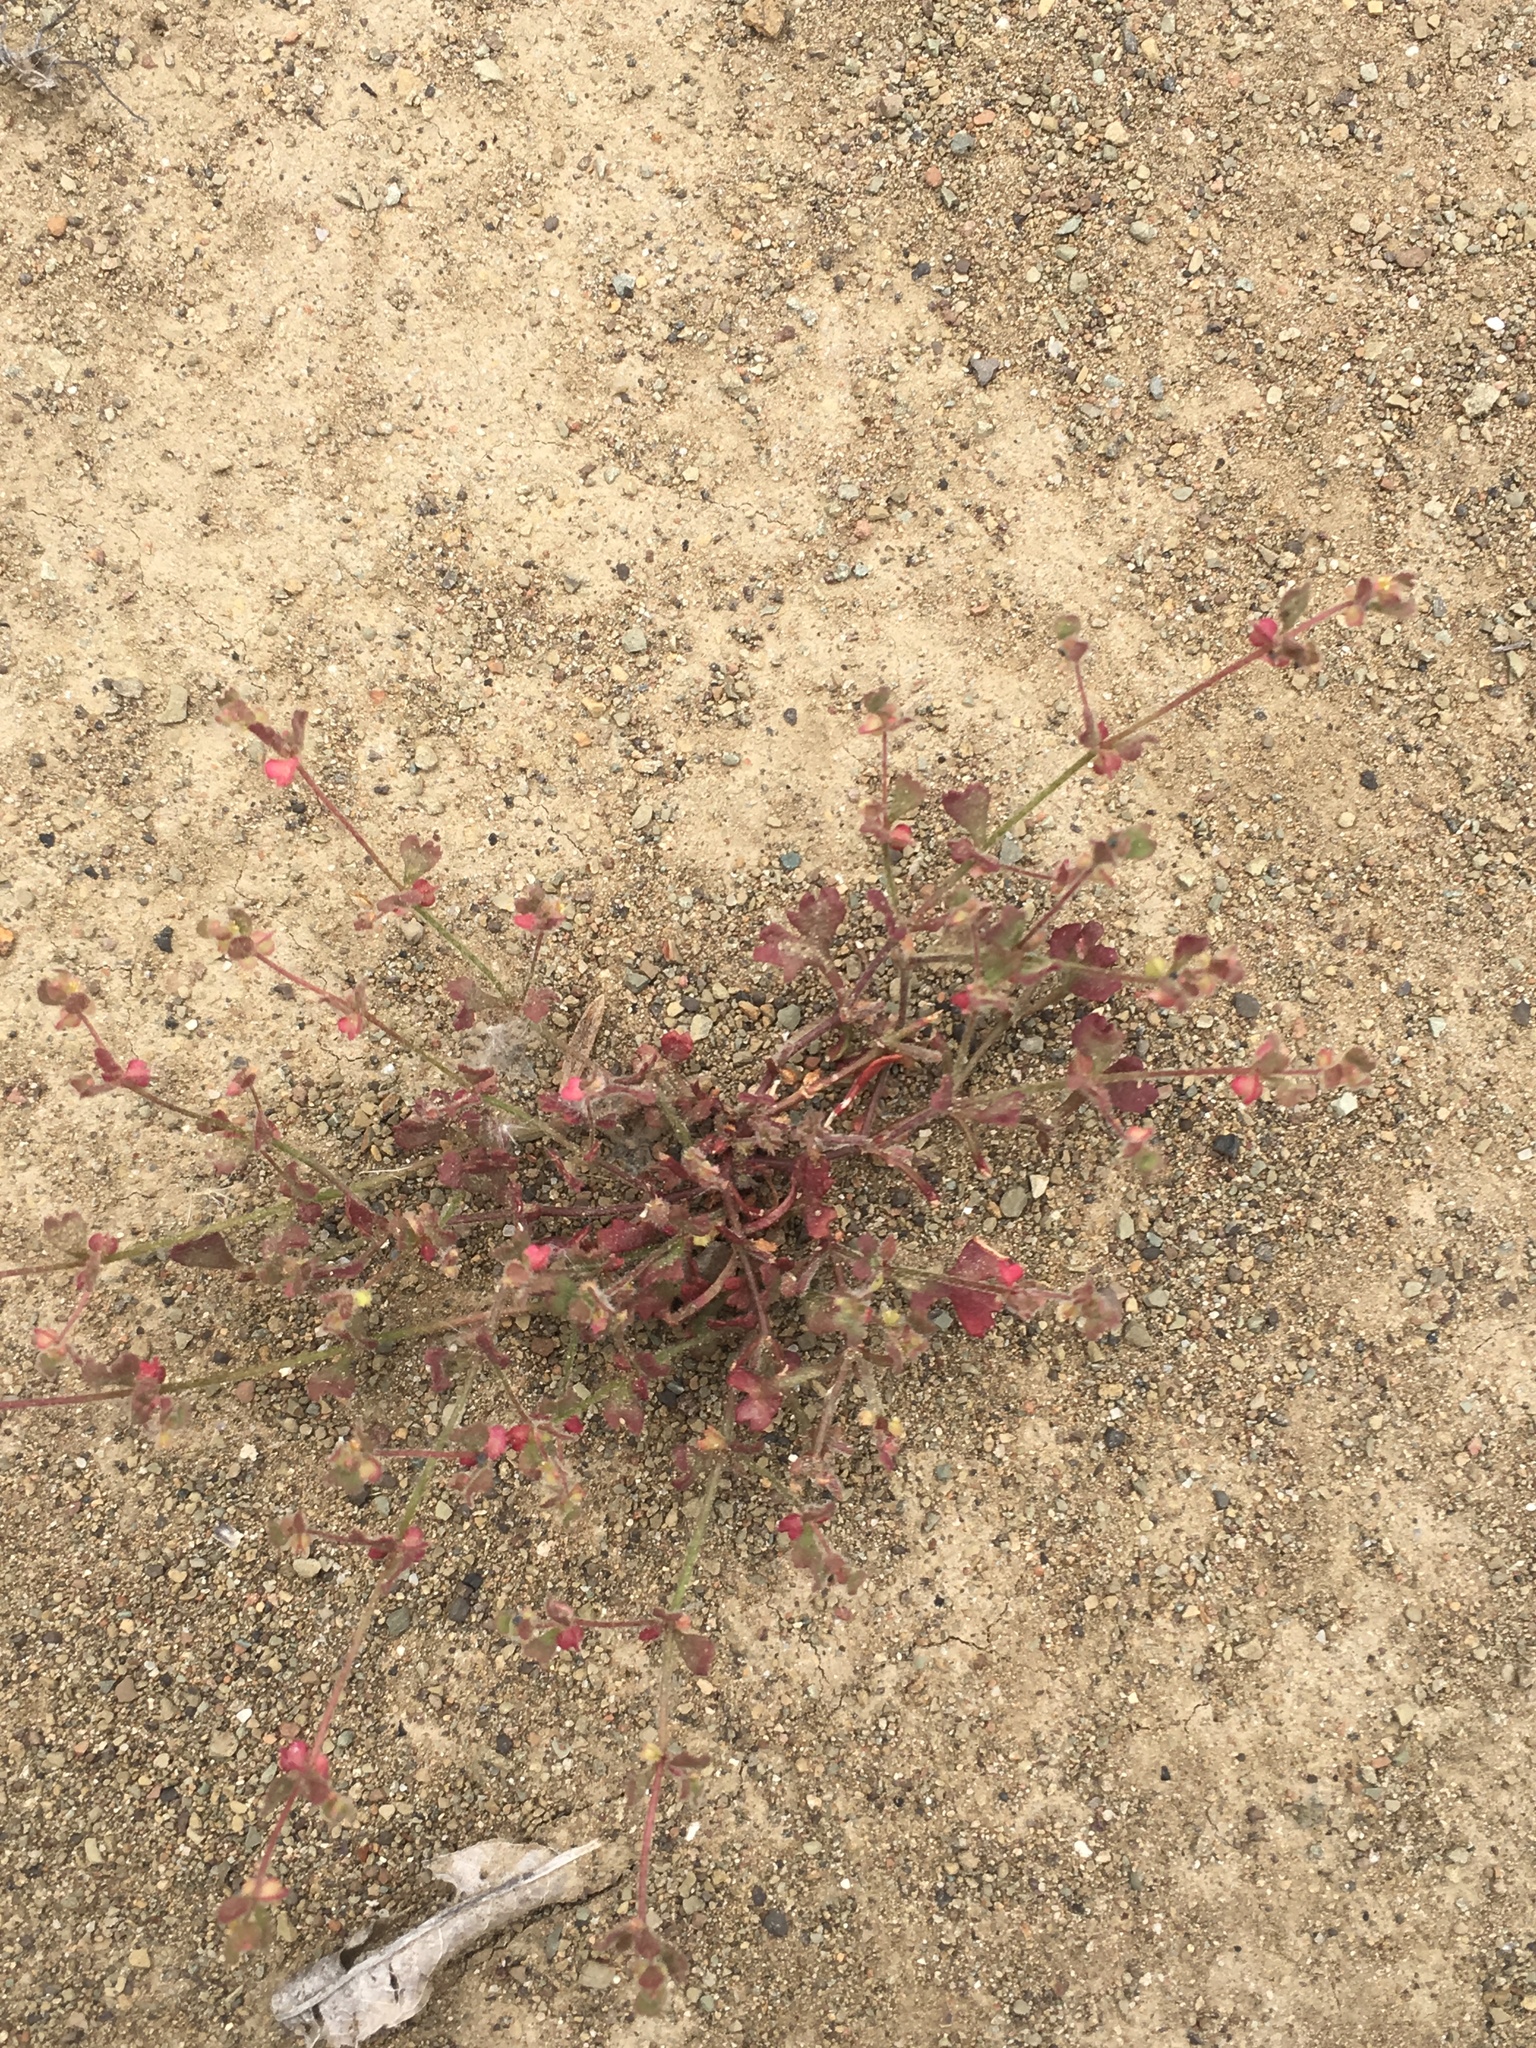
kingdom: Plantae
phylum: Tracheophyta
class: Magnoliopsida
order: Caryophyllales
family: Polygonaceae
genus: Pterostegia
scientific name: Pterostegia drymarioides
